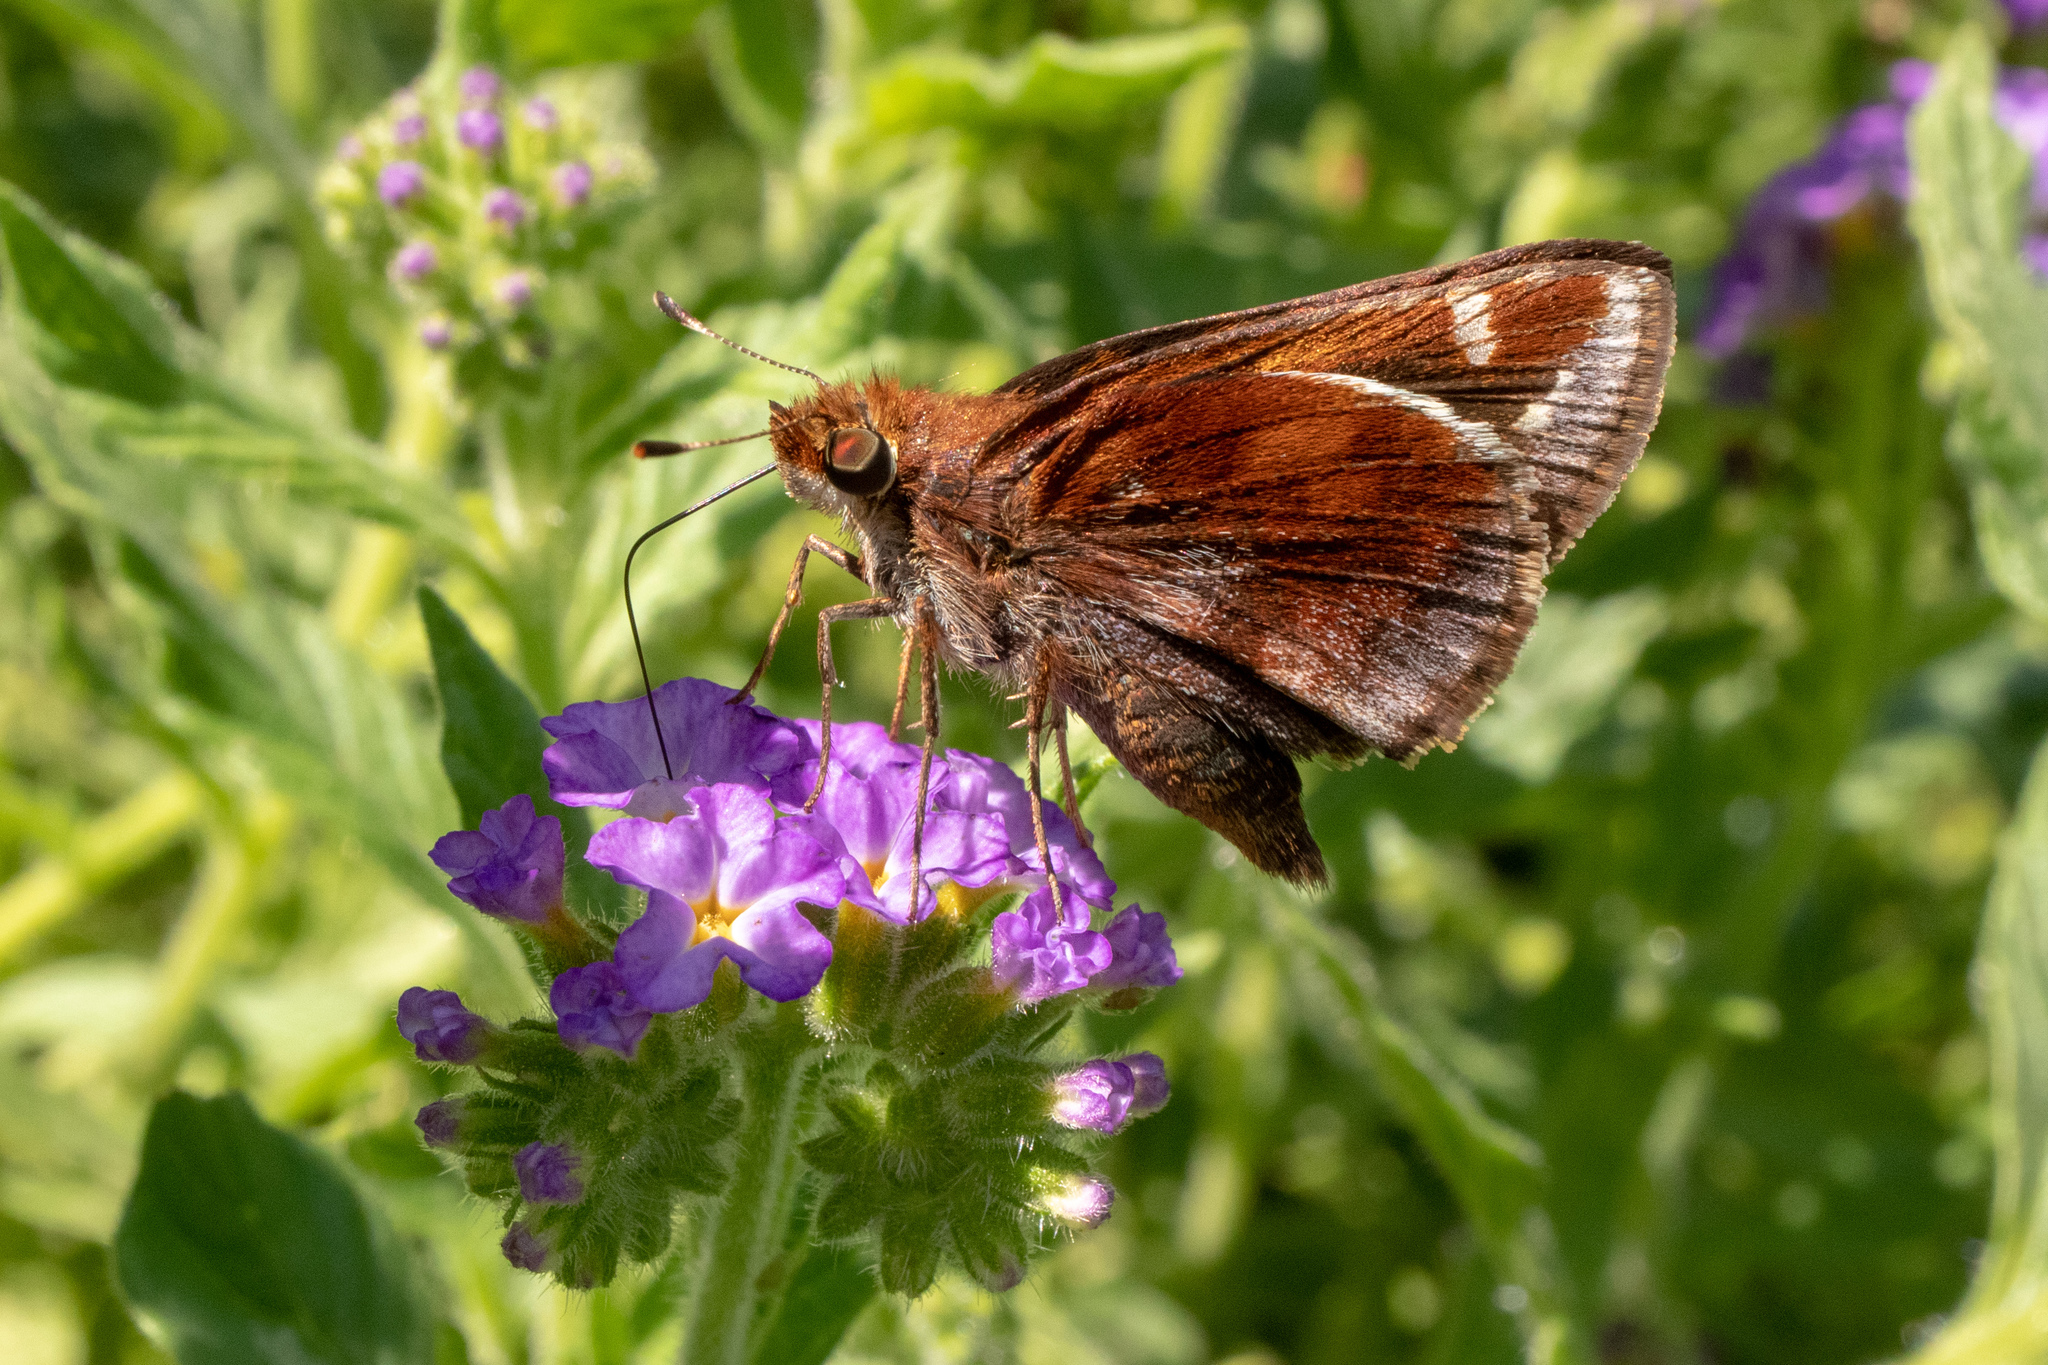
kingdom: Animalia
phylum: Arthropoda
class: Insecta
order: Lepidoptera
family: Hesperiidae
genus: Lon
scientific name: Lon zabulon
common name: Zabulon skipper
